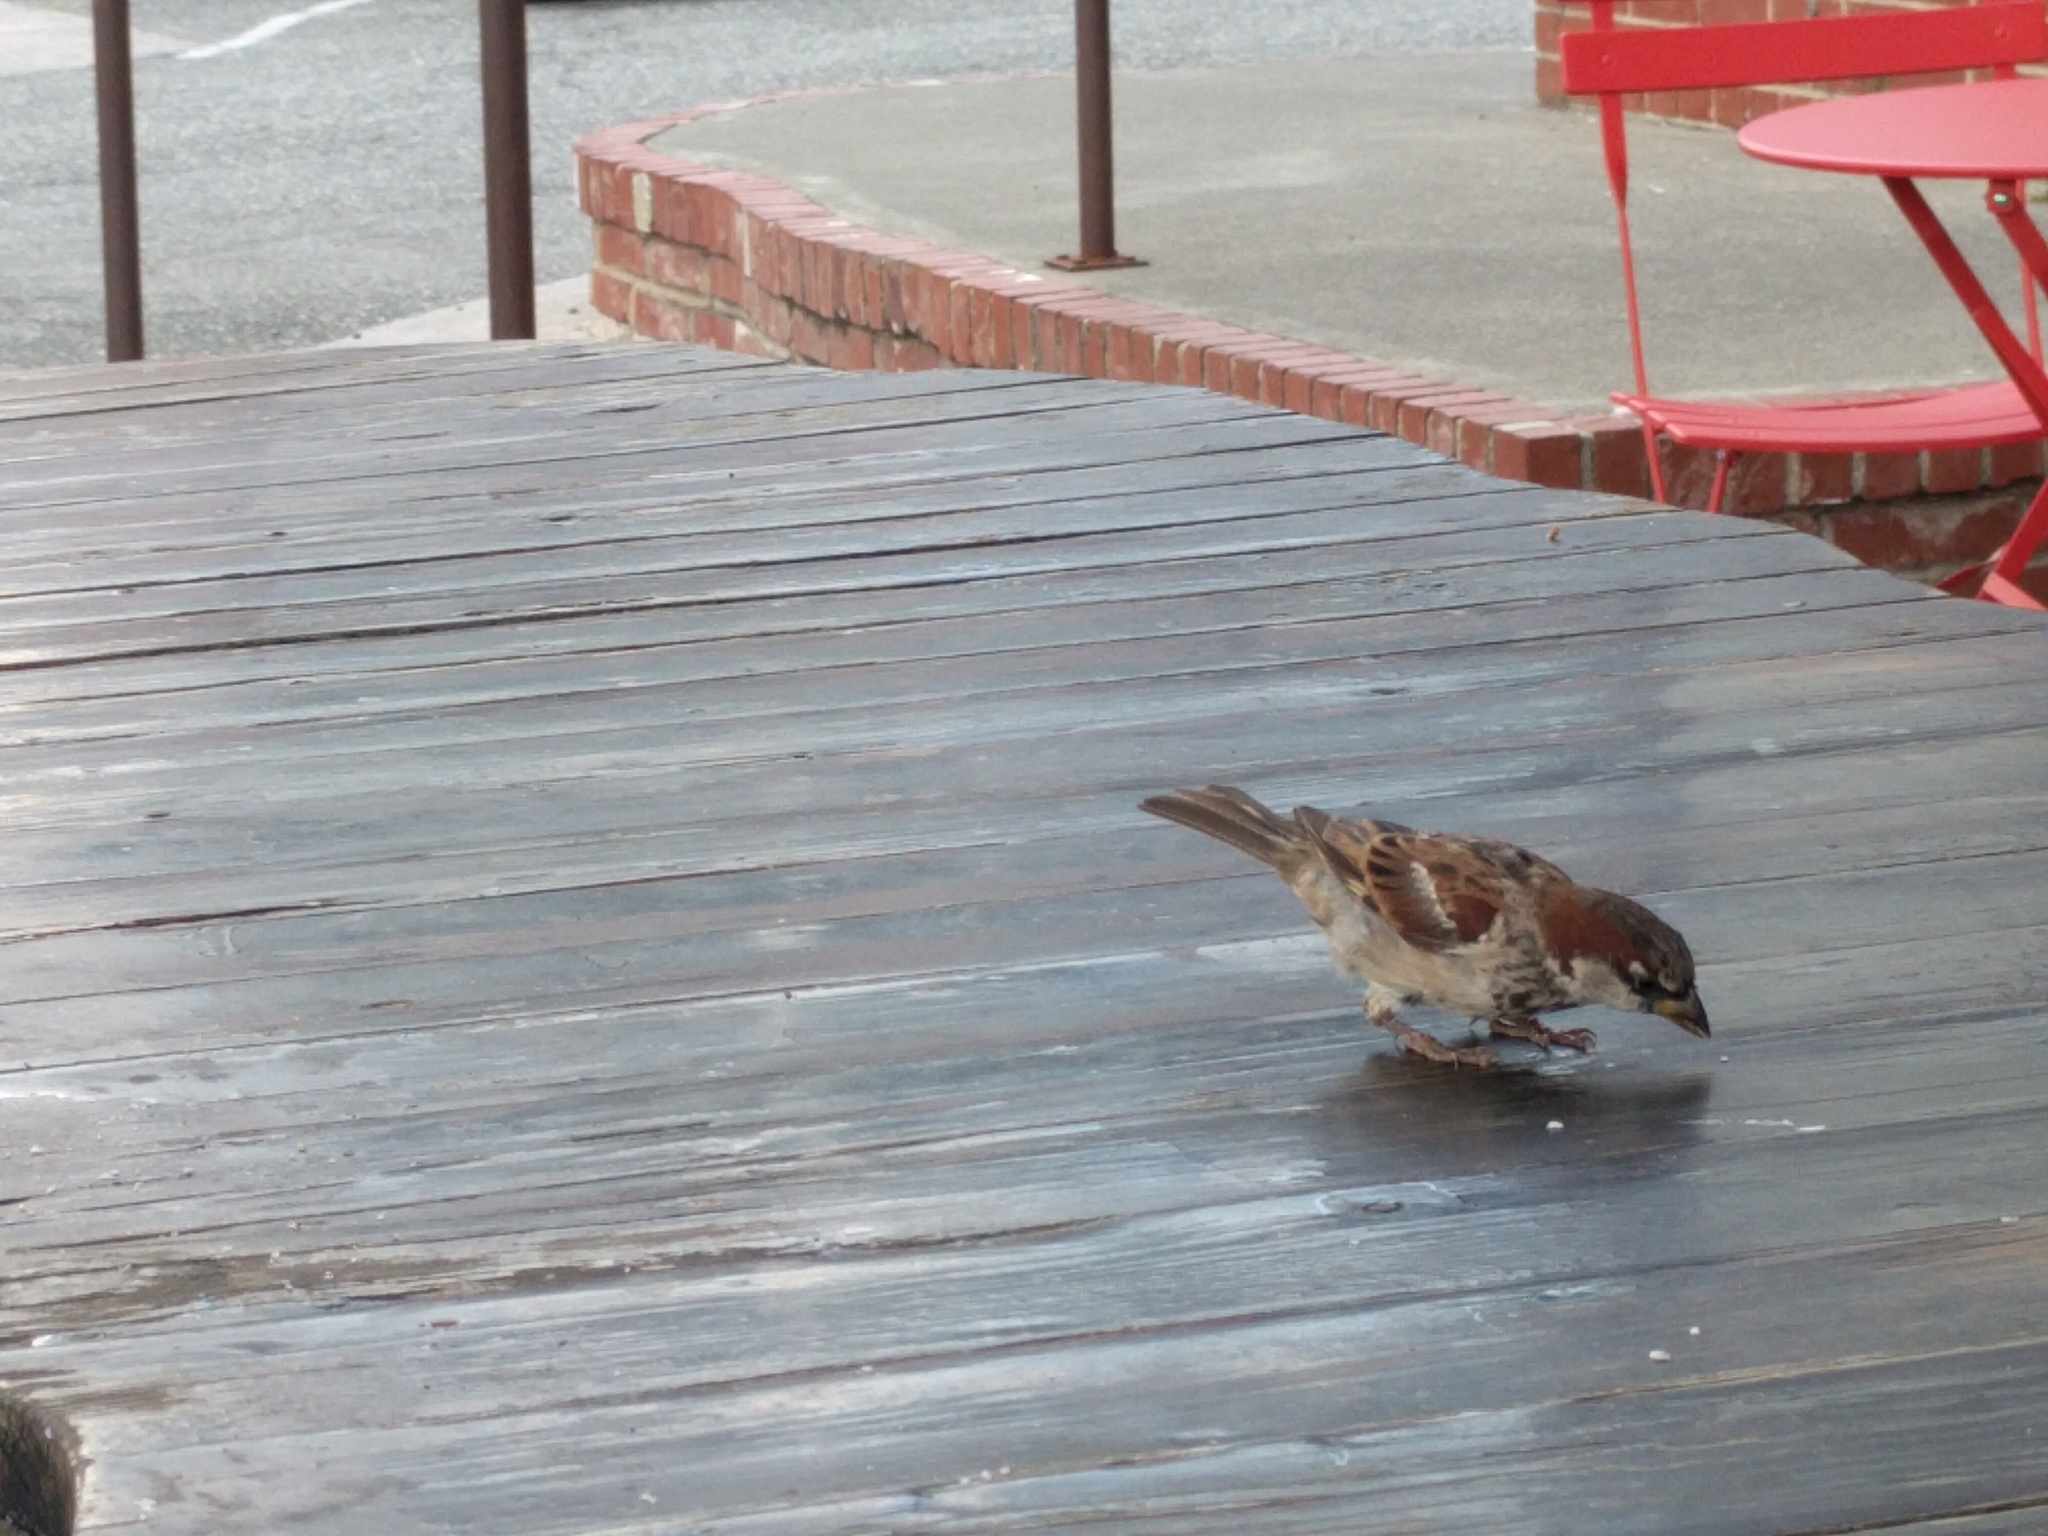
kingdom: Animalia
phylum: Chordata
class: Aves
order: Passeriformes
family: Passeridae
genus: Passer
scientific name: Passer domesticus
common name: House sparrow
